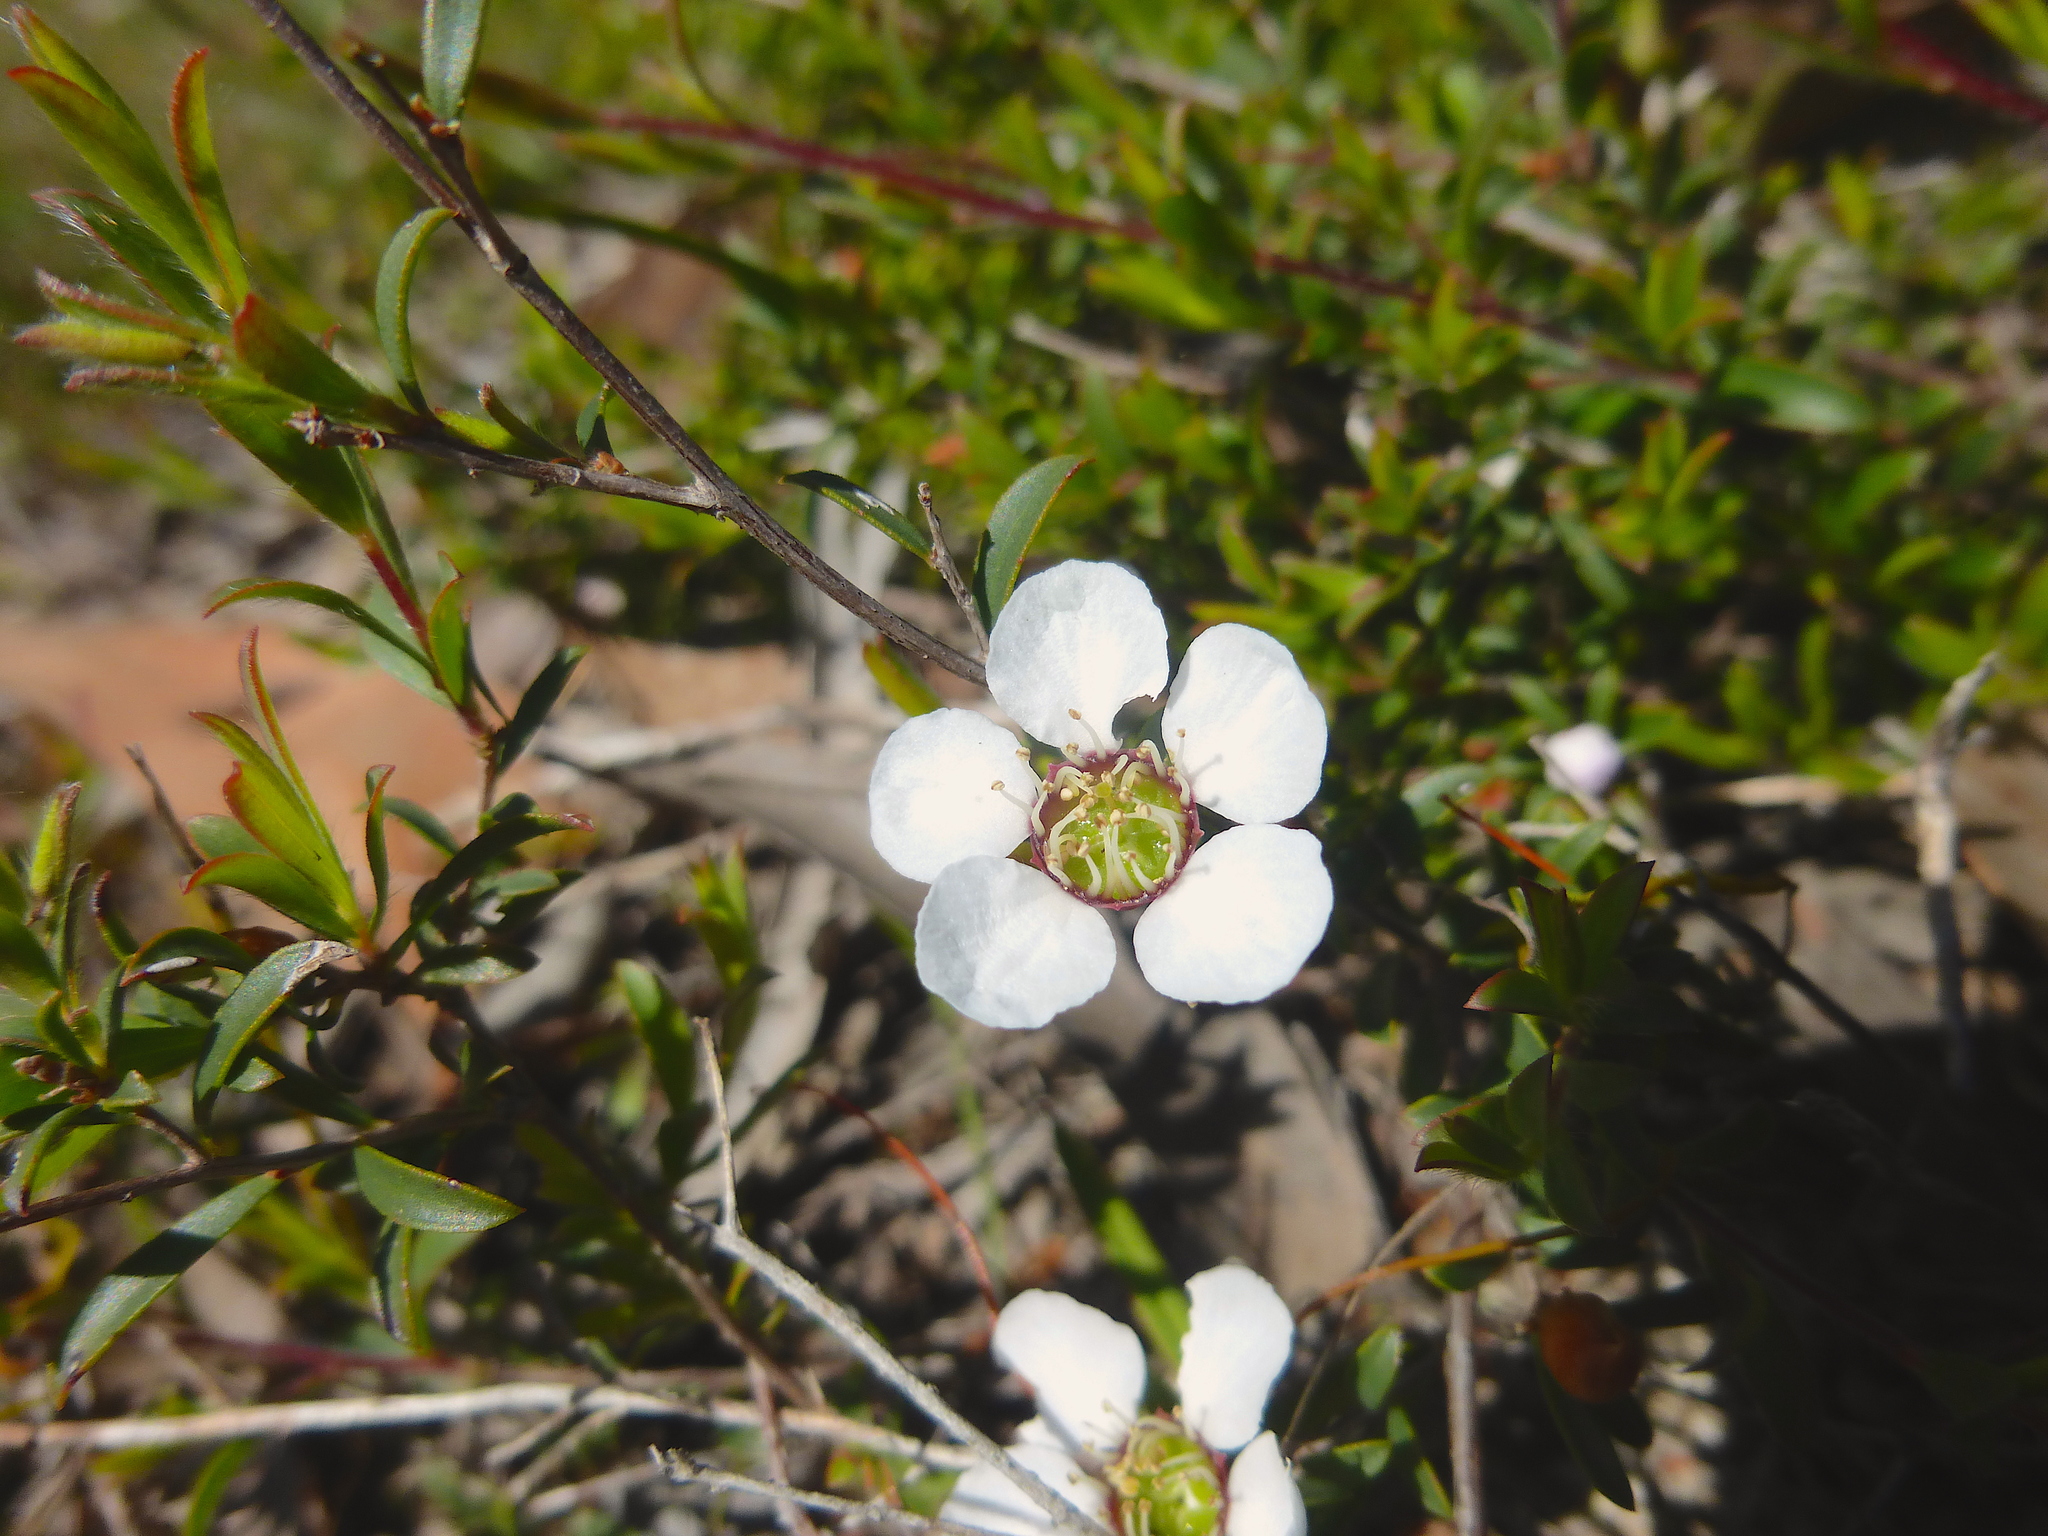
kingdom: Plantae
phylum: Tracheophyta
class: Magnoliopsida
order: Myrtales
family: Myrtaceae
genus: Leptospermum
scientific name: Leptospermum myrsinoides
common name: Heath teatree
